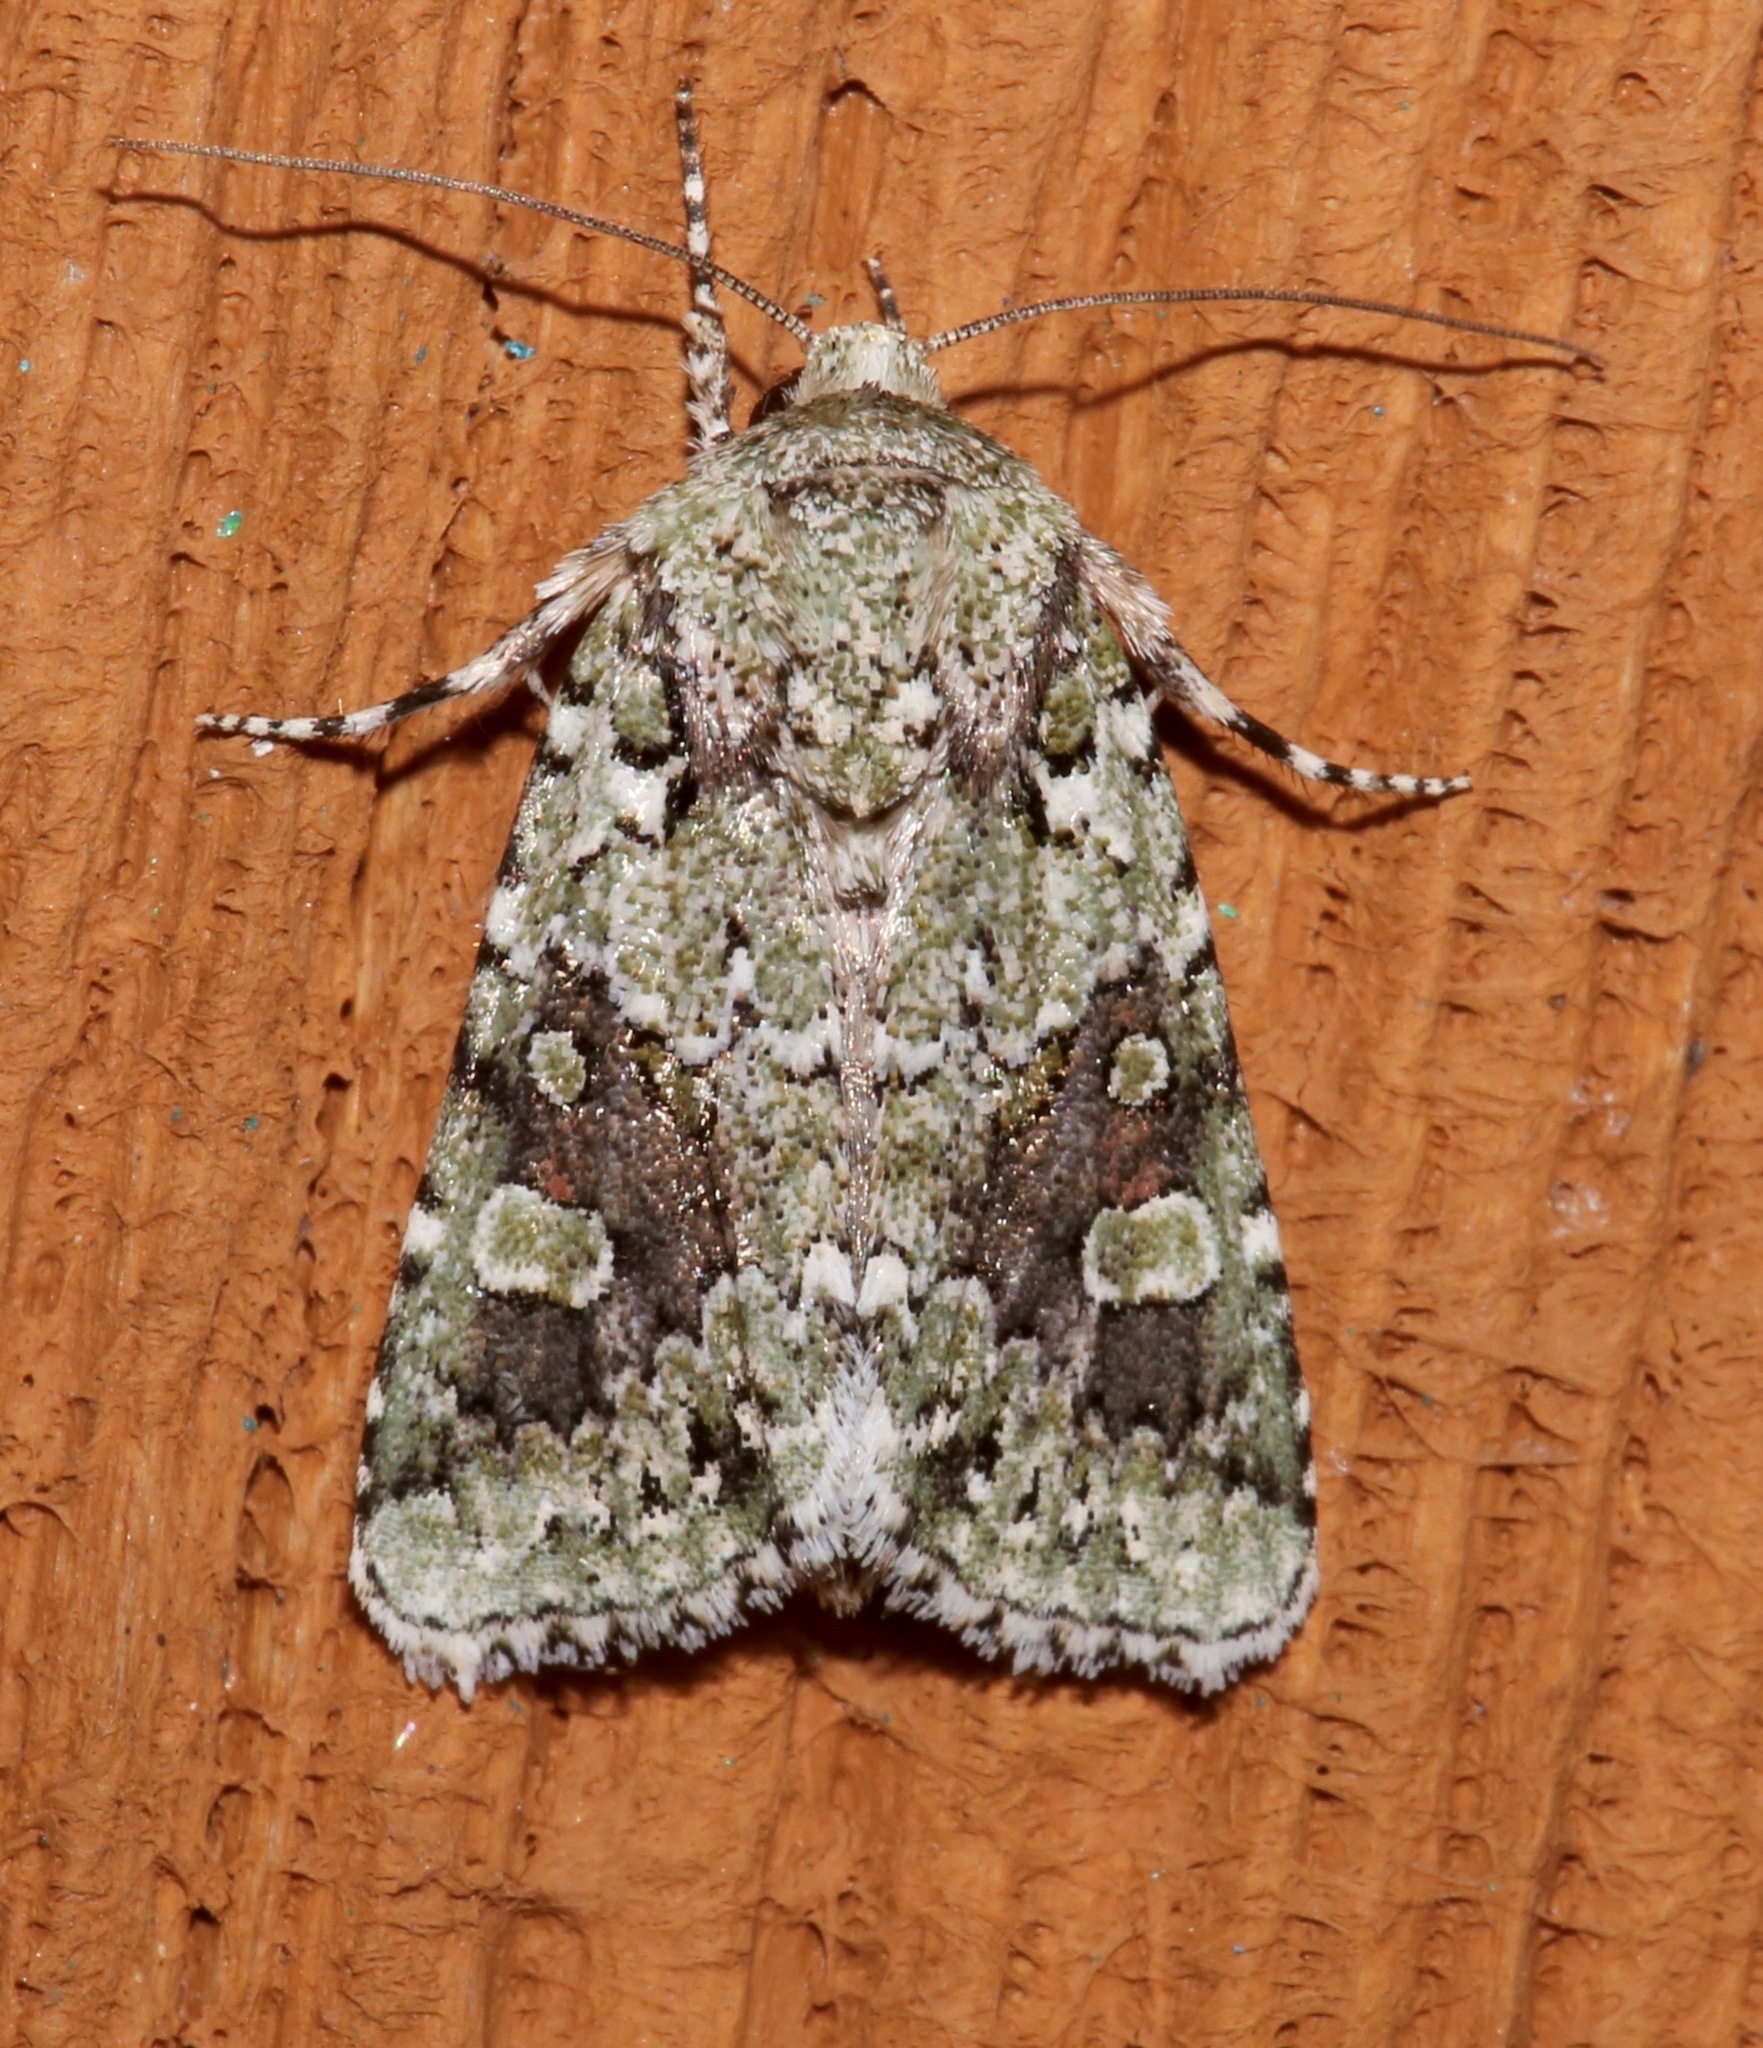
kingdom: Animalia
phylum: Arthropoda
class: Insecta
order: Lepidoptera
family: Noctuidae
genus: Lacinipolia
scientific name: Lacinipolia laudabilis
